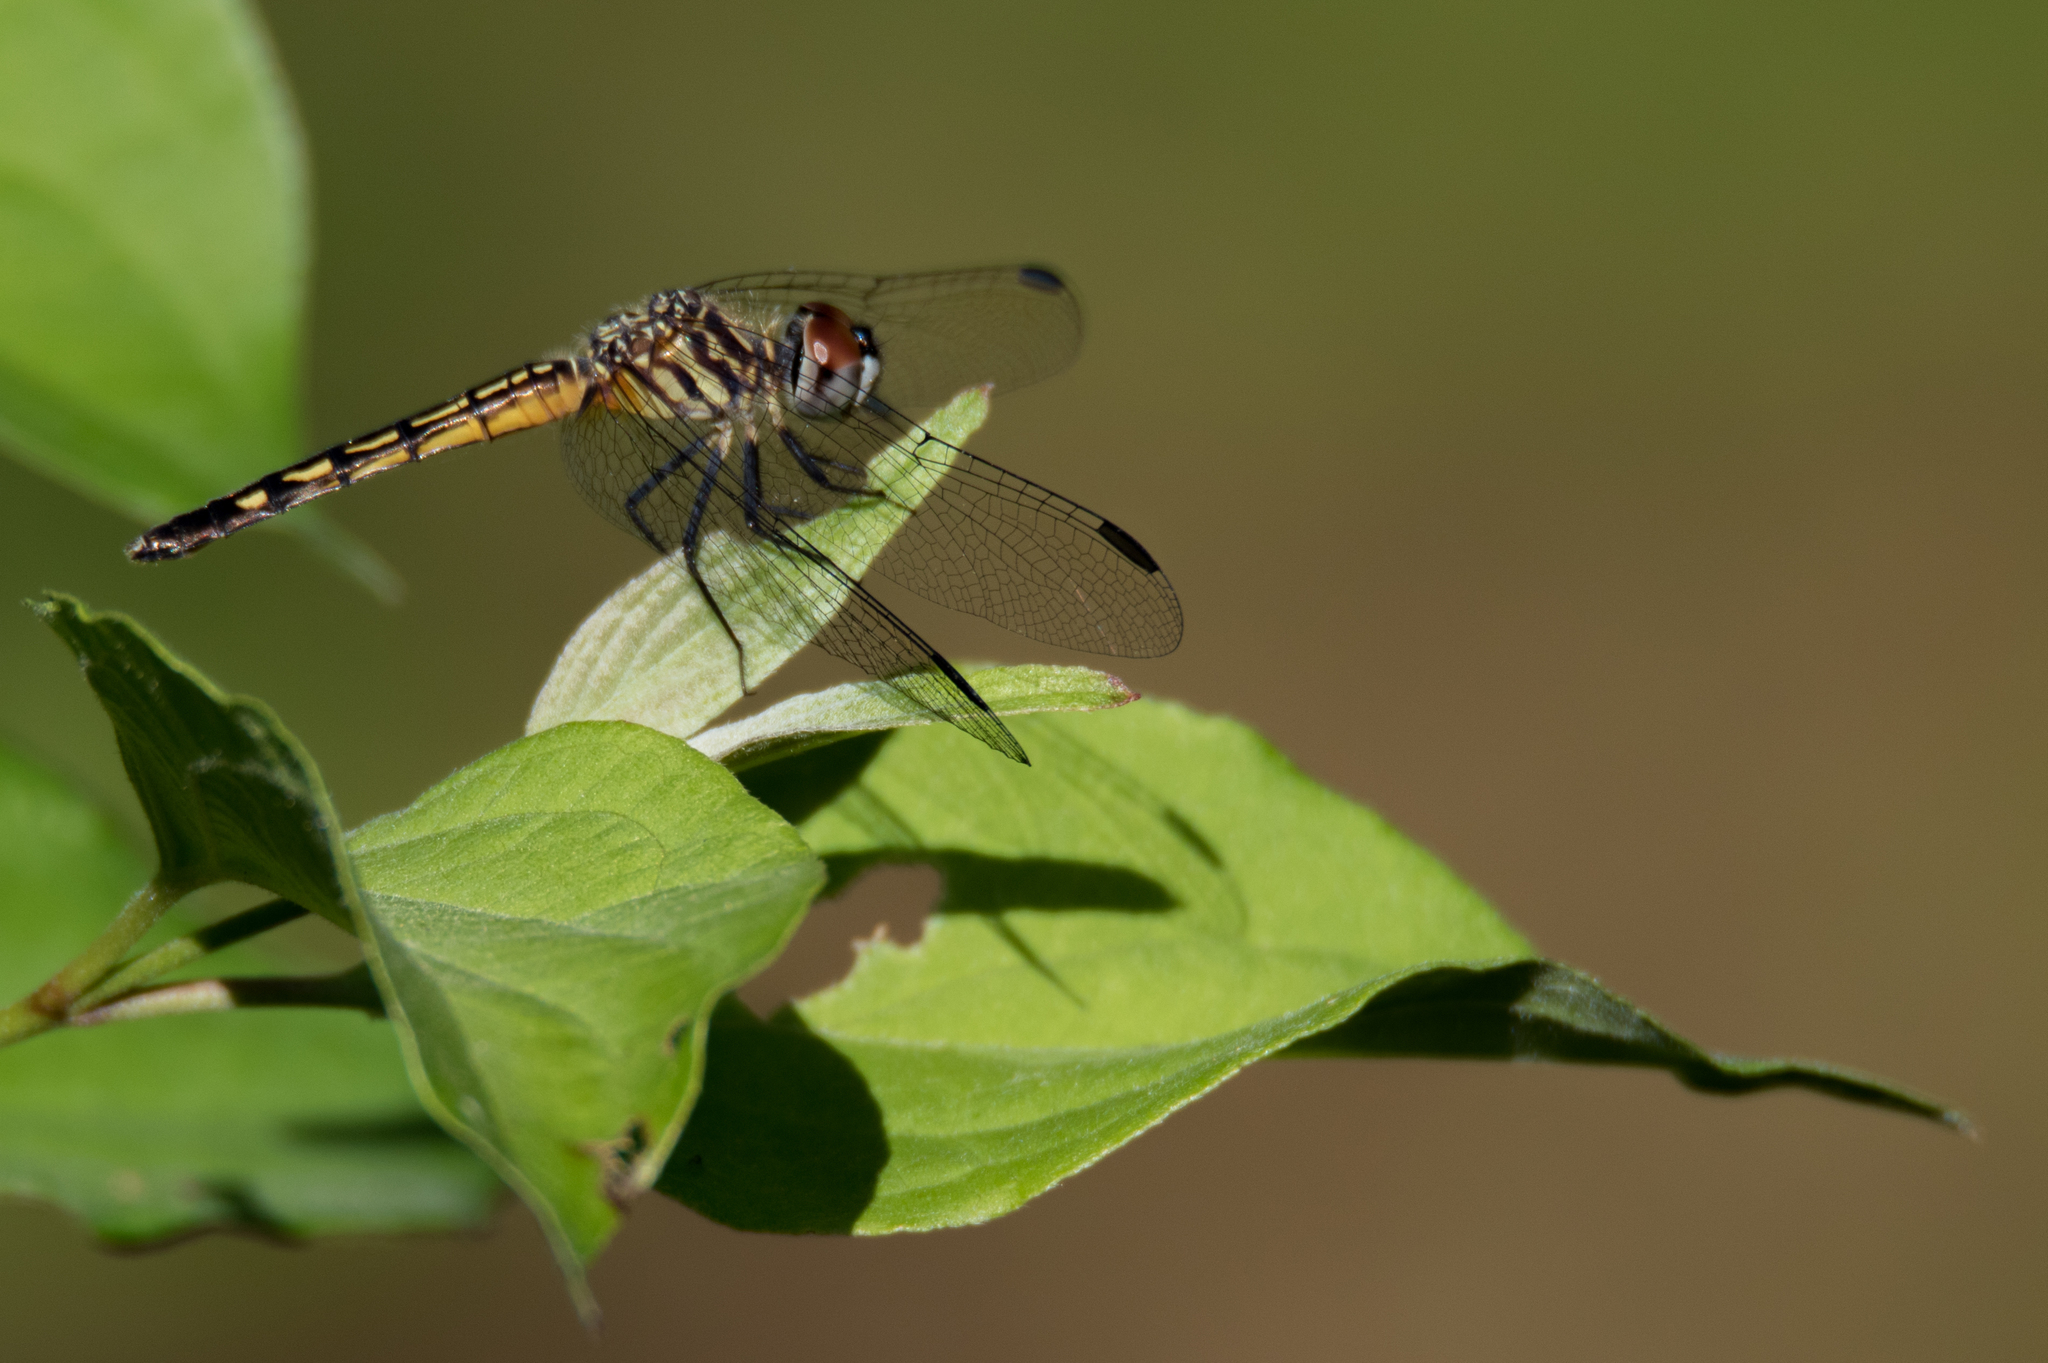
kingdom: Animalia
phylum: Arthropoda
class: Insecta
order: Odonata
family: Libellulidae
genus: Pachydiplax
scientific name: Pachydiplax longipennis
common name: Blue dasher
